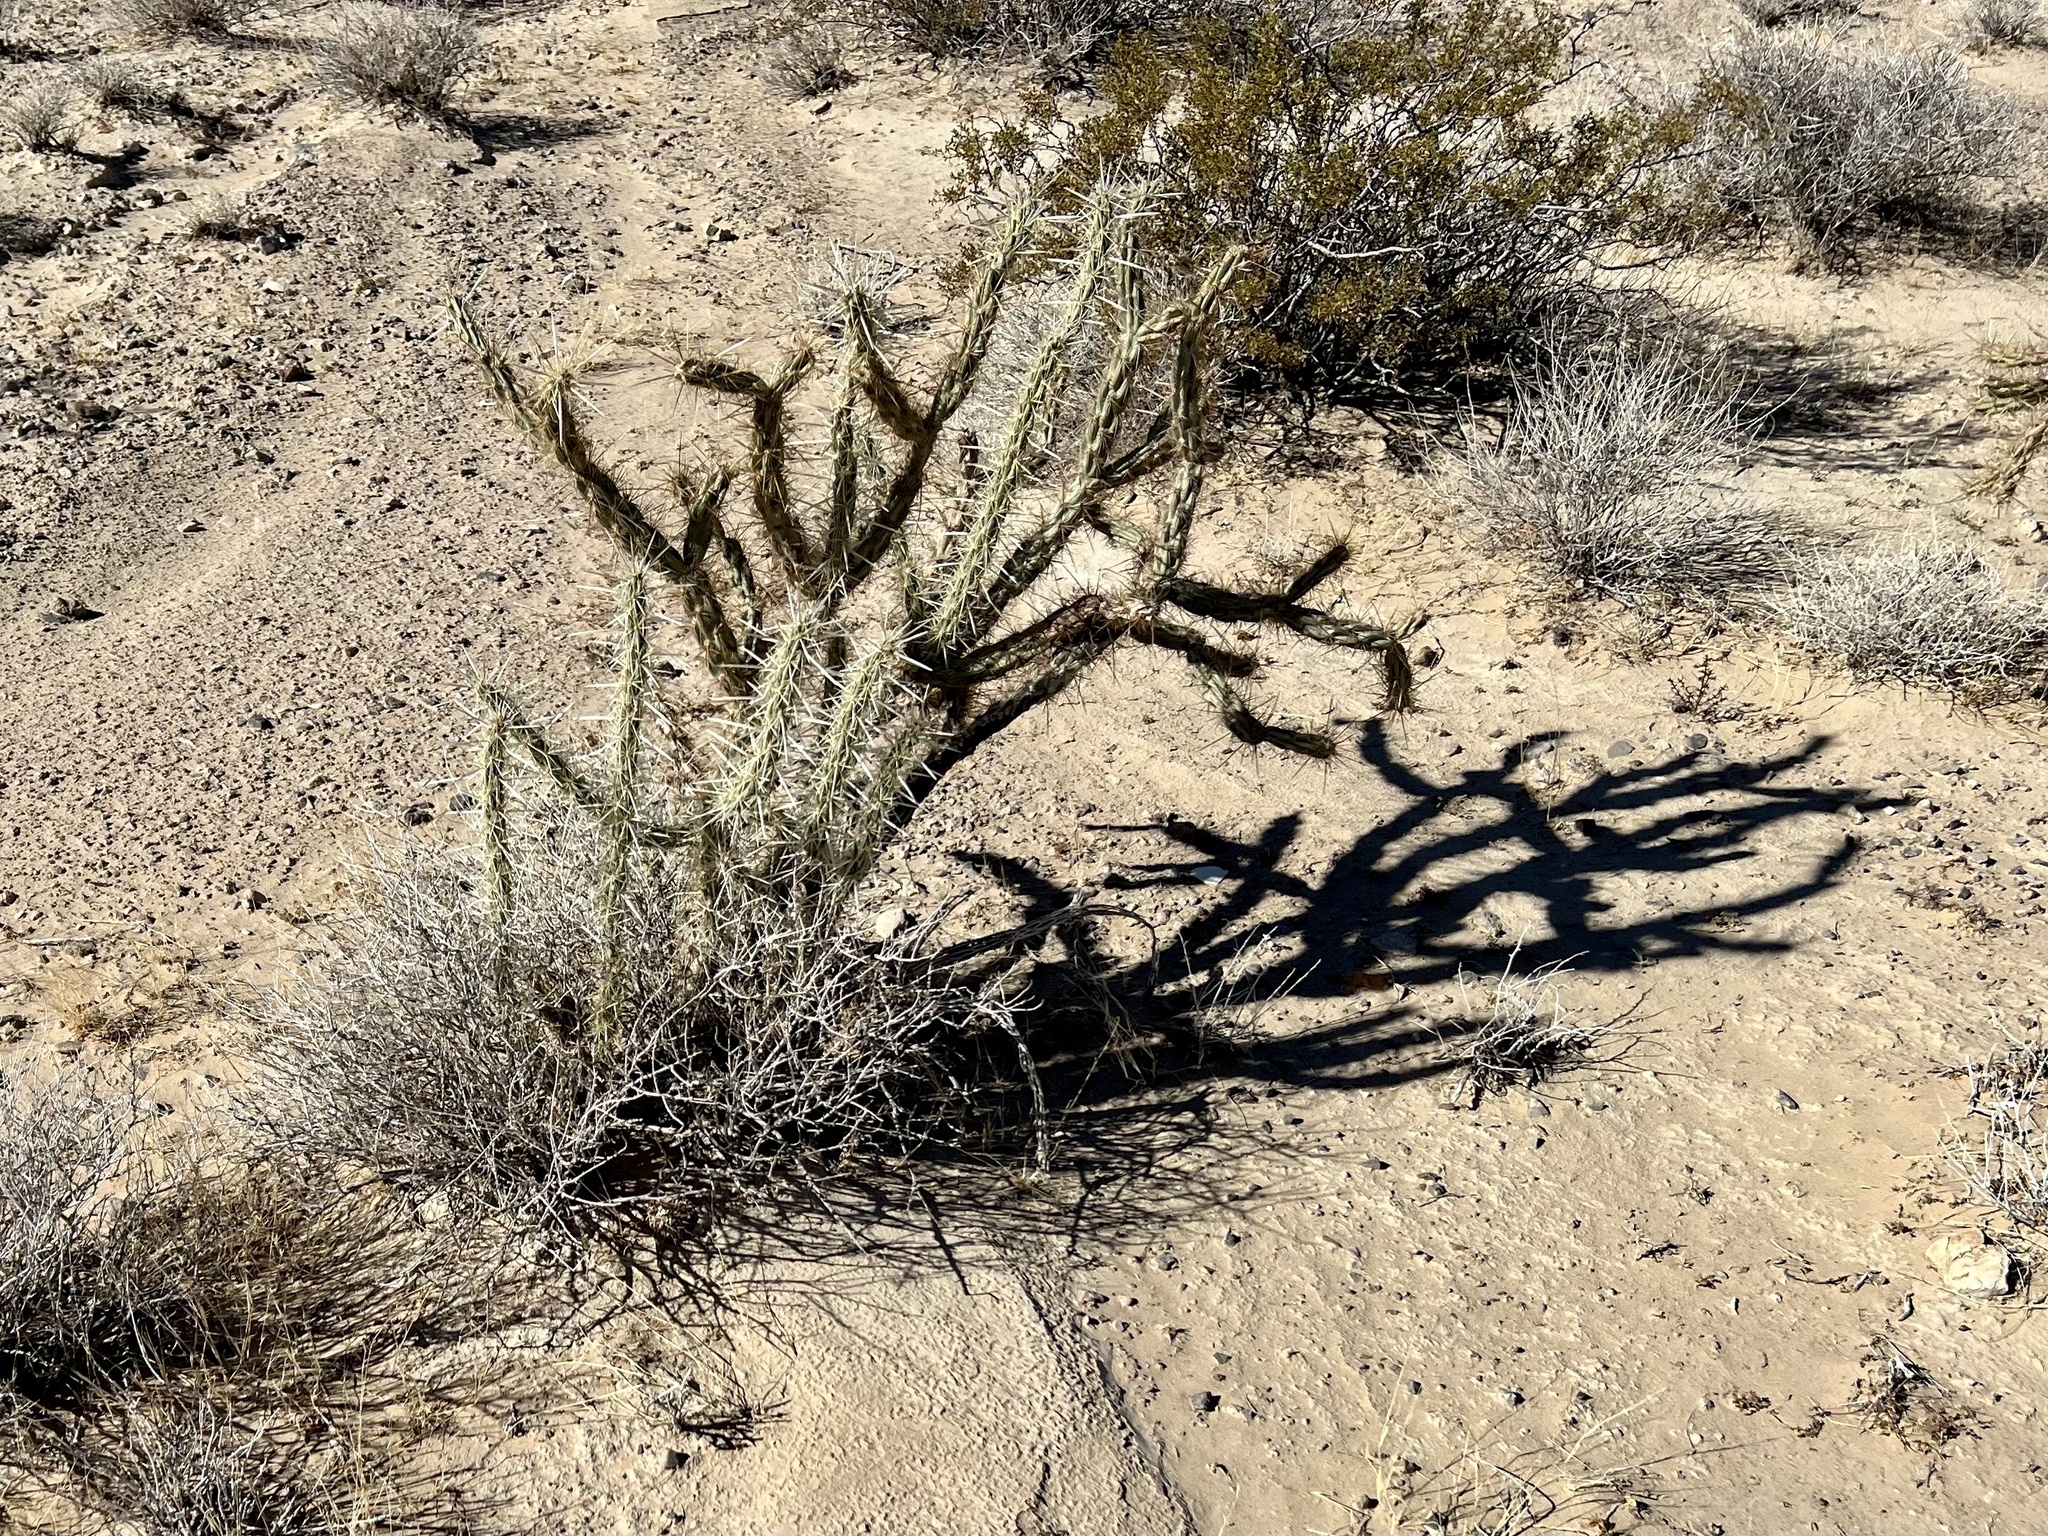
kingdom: Plantae
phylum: Tracheophyta
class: Magnoliopsida
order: Caryophyllales
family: Cactaceae
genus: Cylindropuntia
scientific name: Cylindropuntia acanthocarpa
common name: Buckhorn cholla
